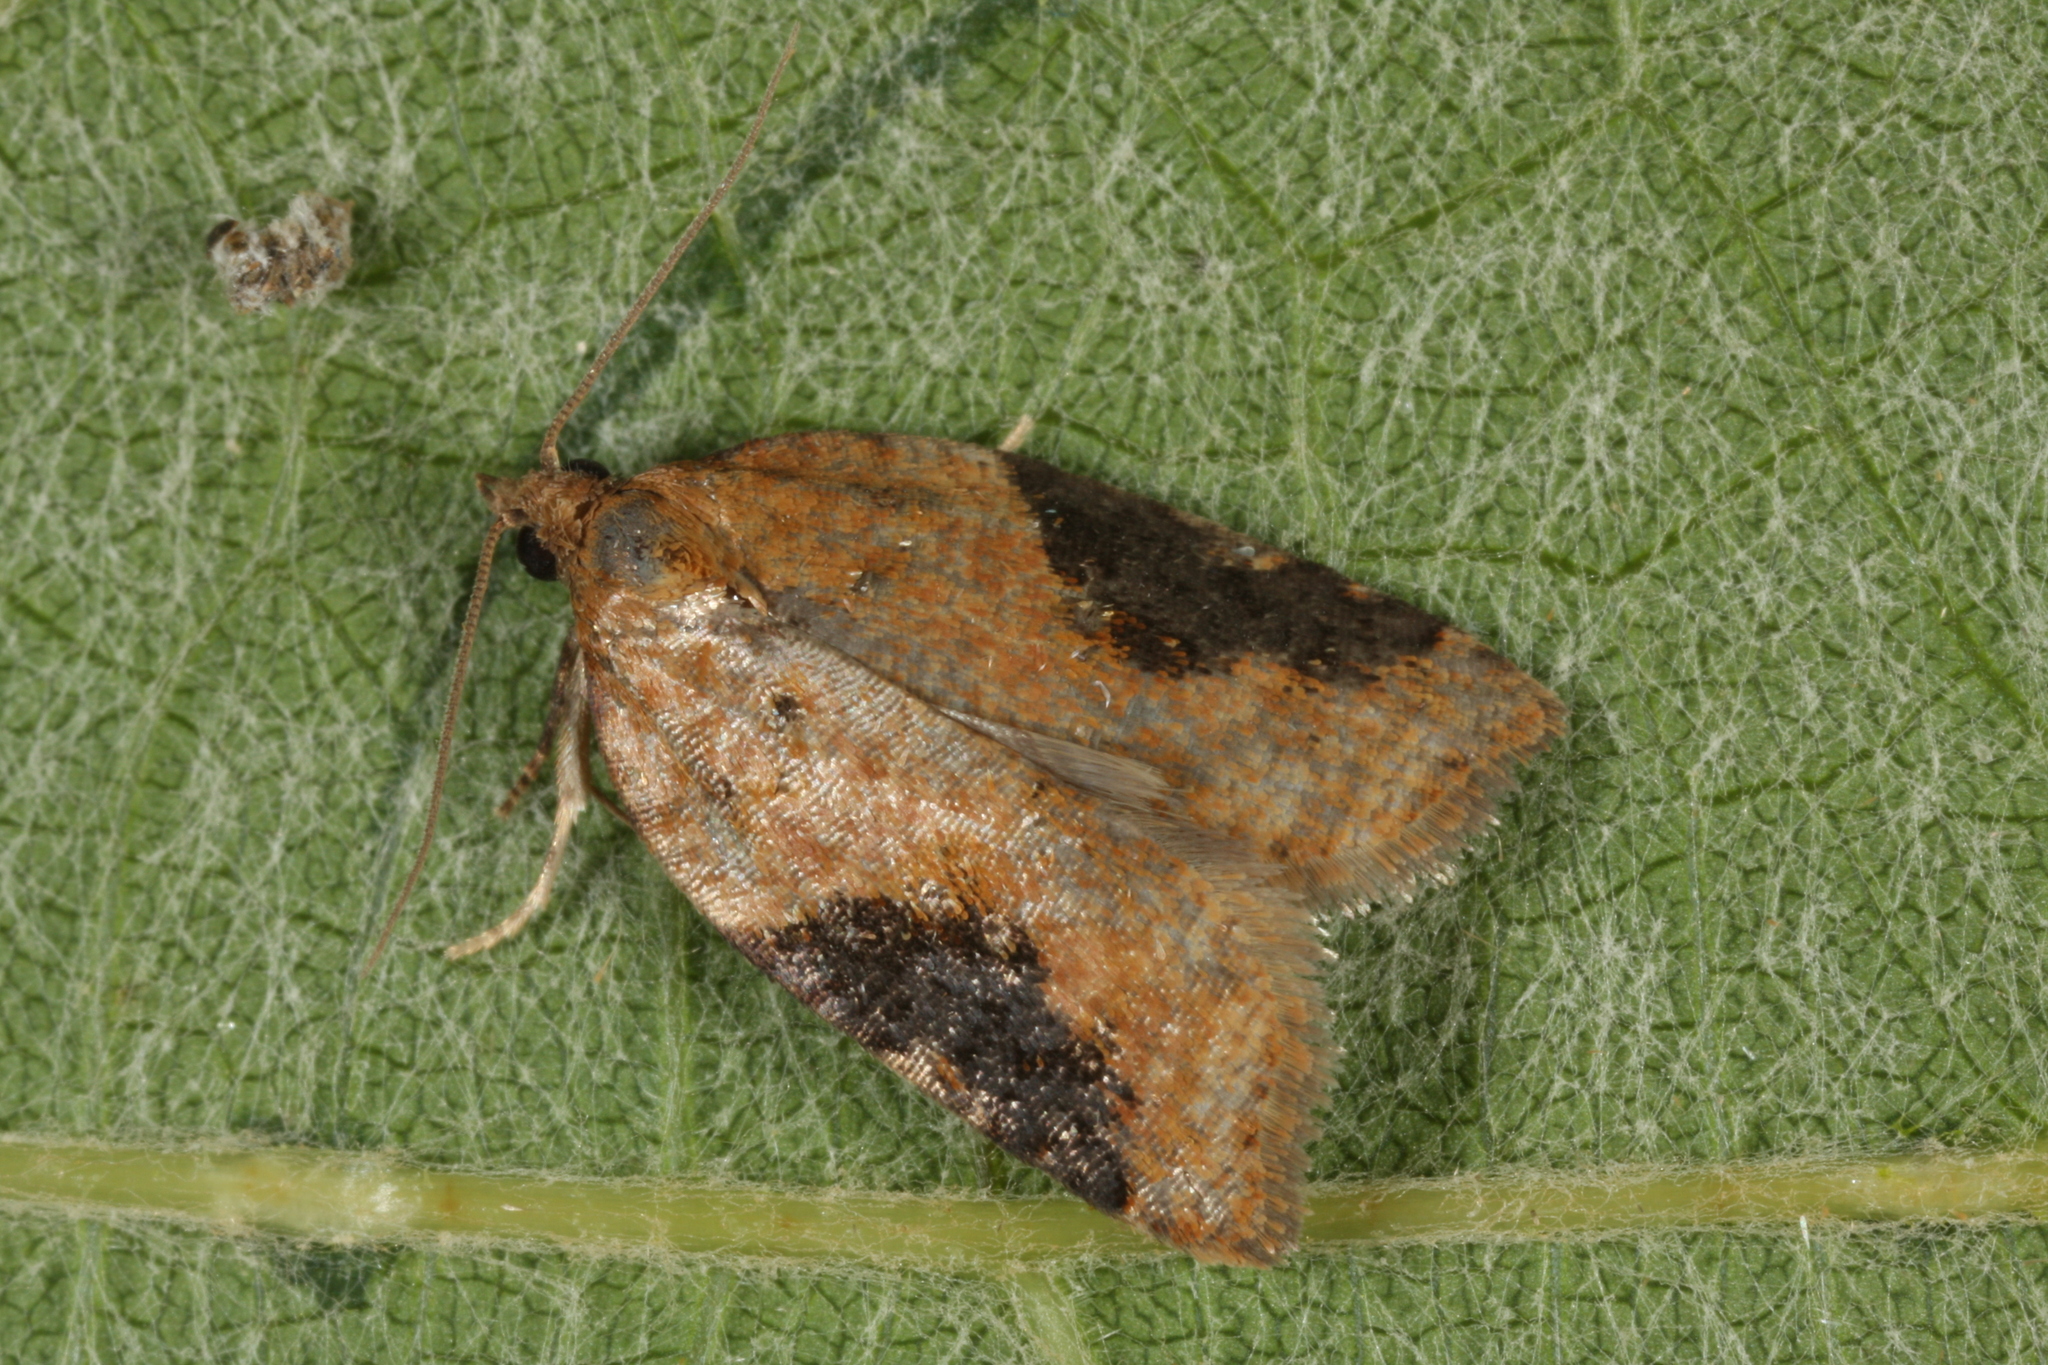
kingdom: Animalia
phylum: Arthropoda
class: Insecta
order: Lepidoptera
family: Tortricidae
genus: Acleris
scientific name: Acleris laterana
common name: Dark-triangle button
